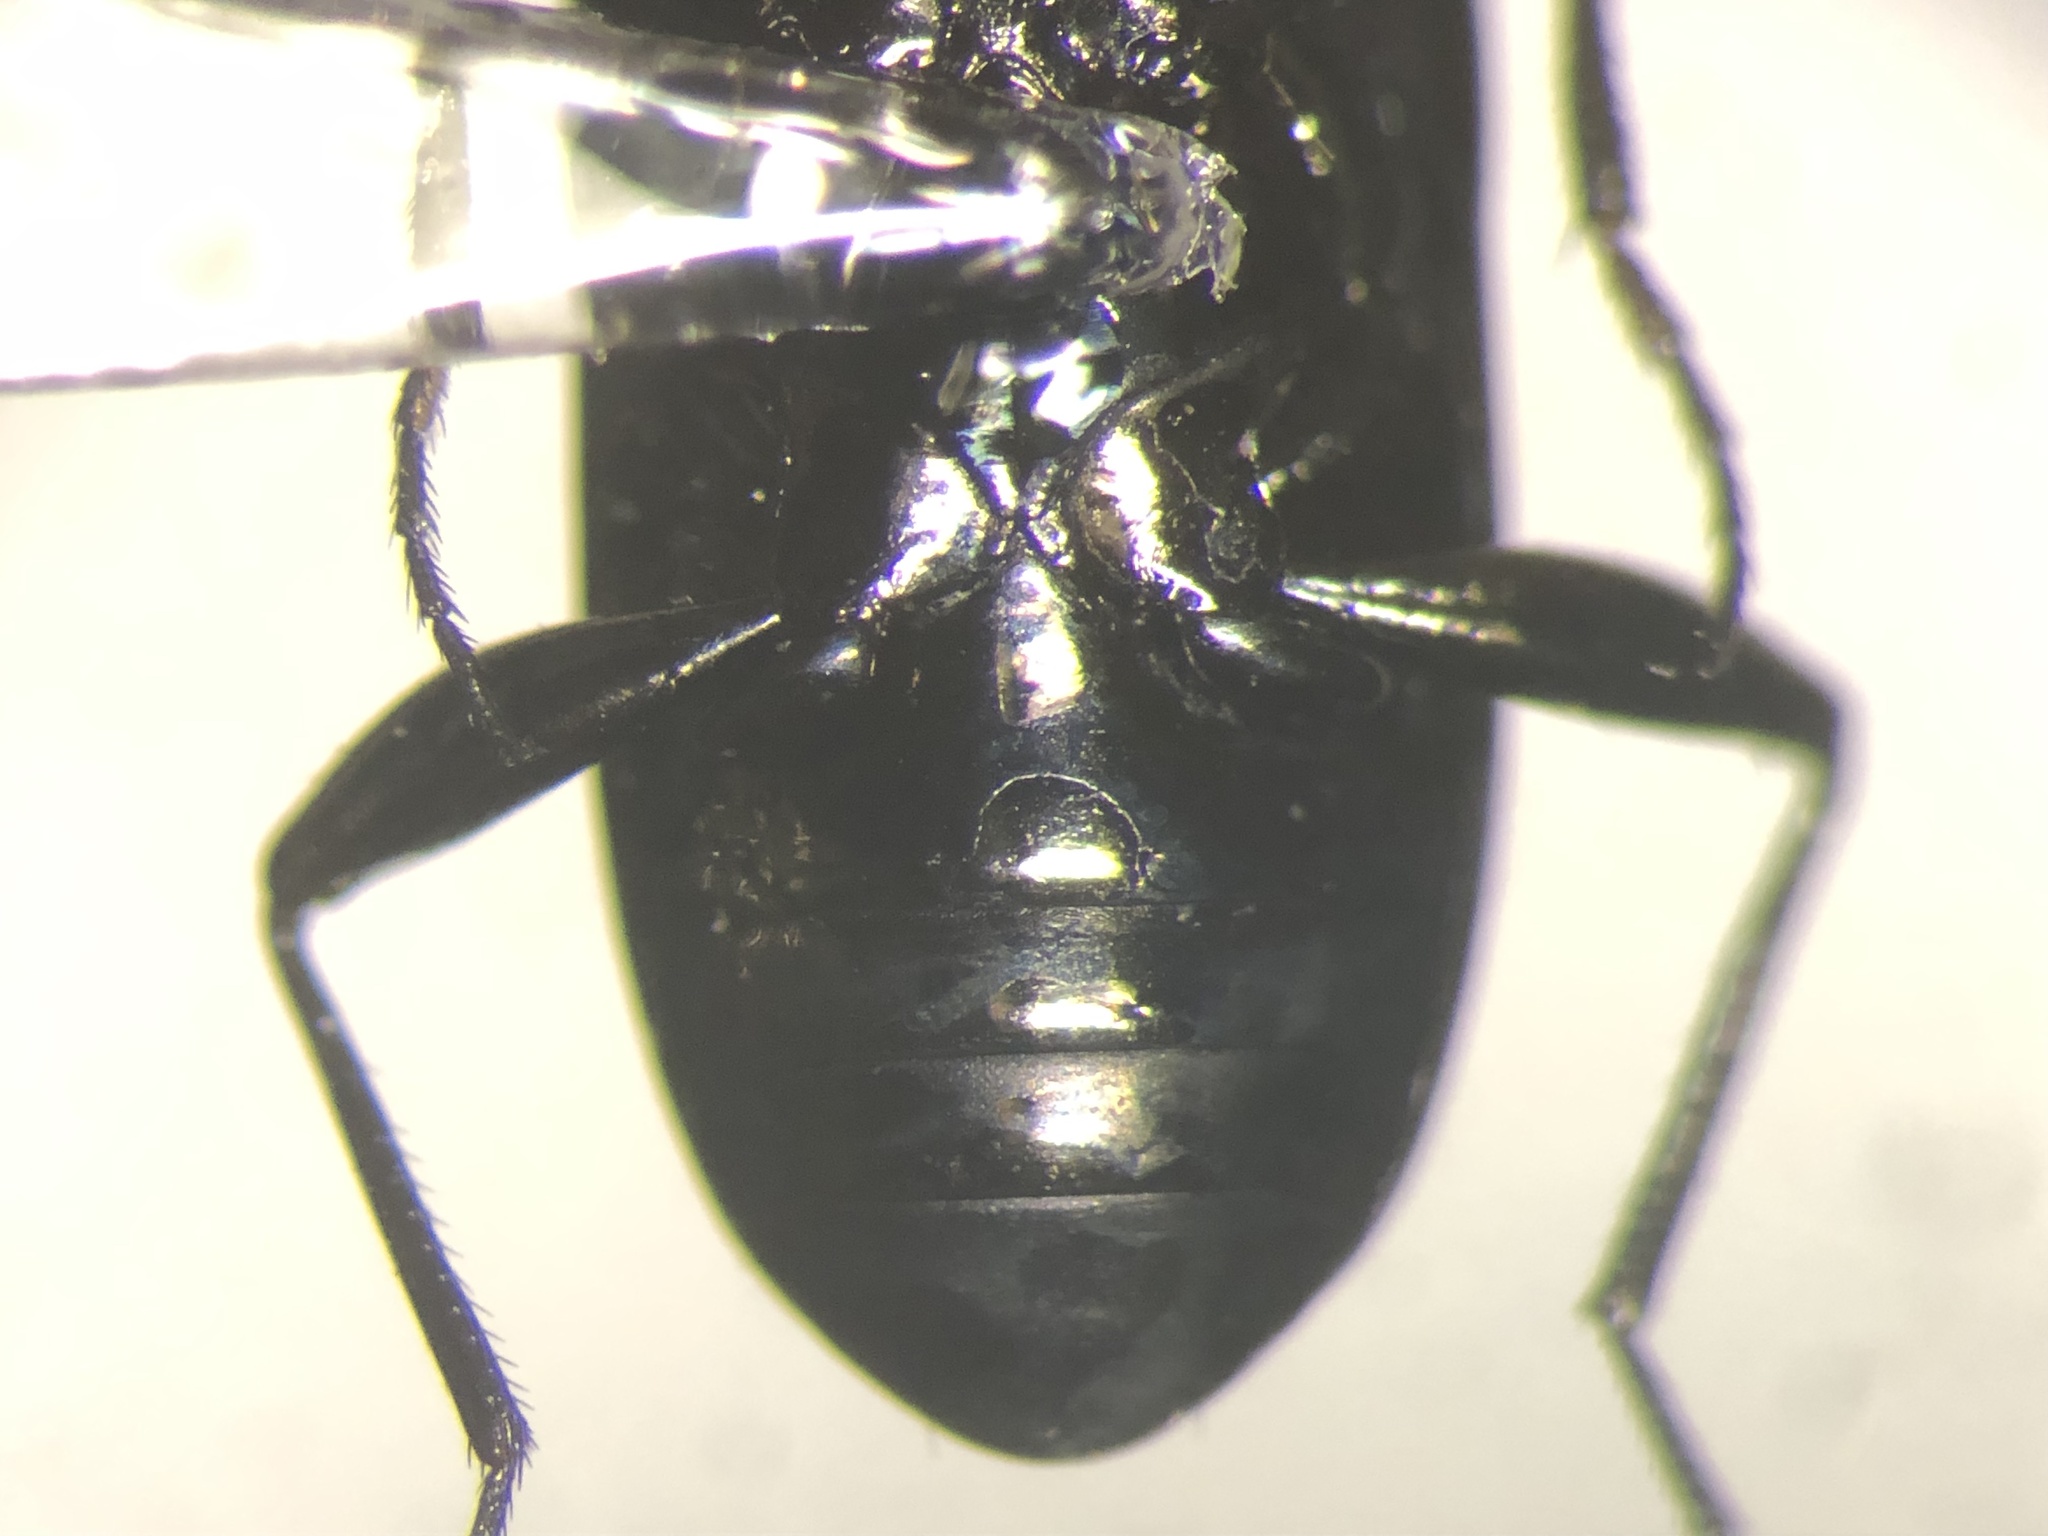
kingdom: Animalia
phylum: Arthropoda
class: Insecta
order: Coleoptera
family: Carabidae
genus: Notiophilus
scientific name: Notiophilus aquaticus
